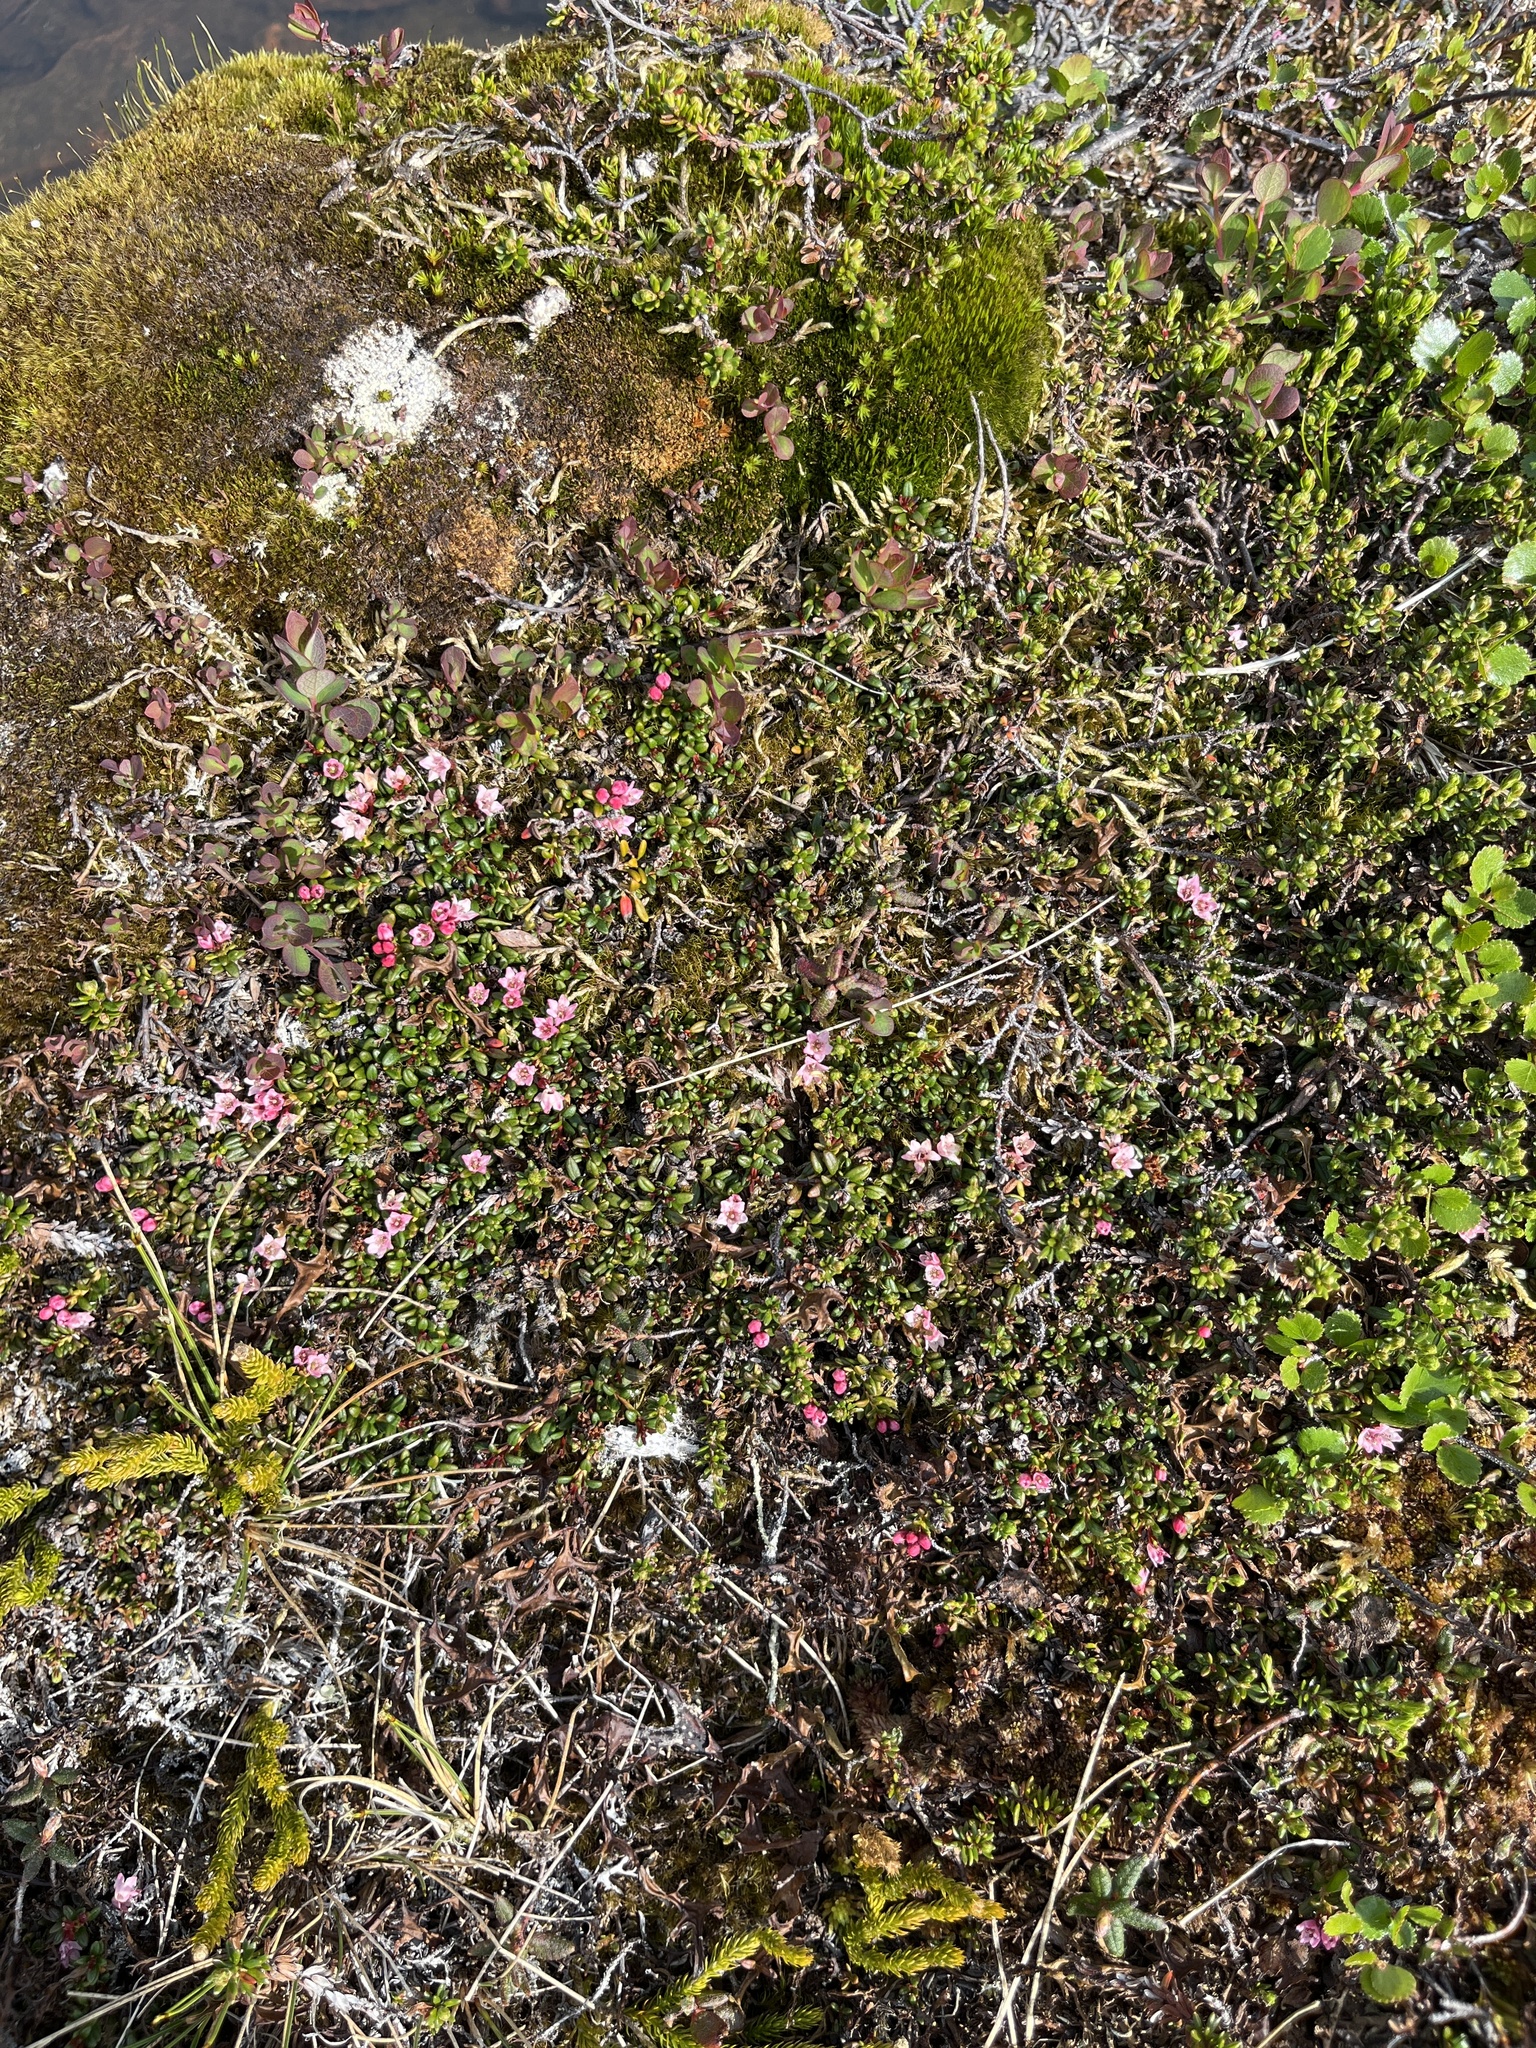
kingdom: Plantae
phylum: Tracheophyta
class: Magnoliopsida
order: Ericales
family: Ericaceae
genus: Kalmia
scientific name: Kalmia procumbens
